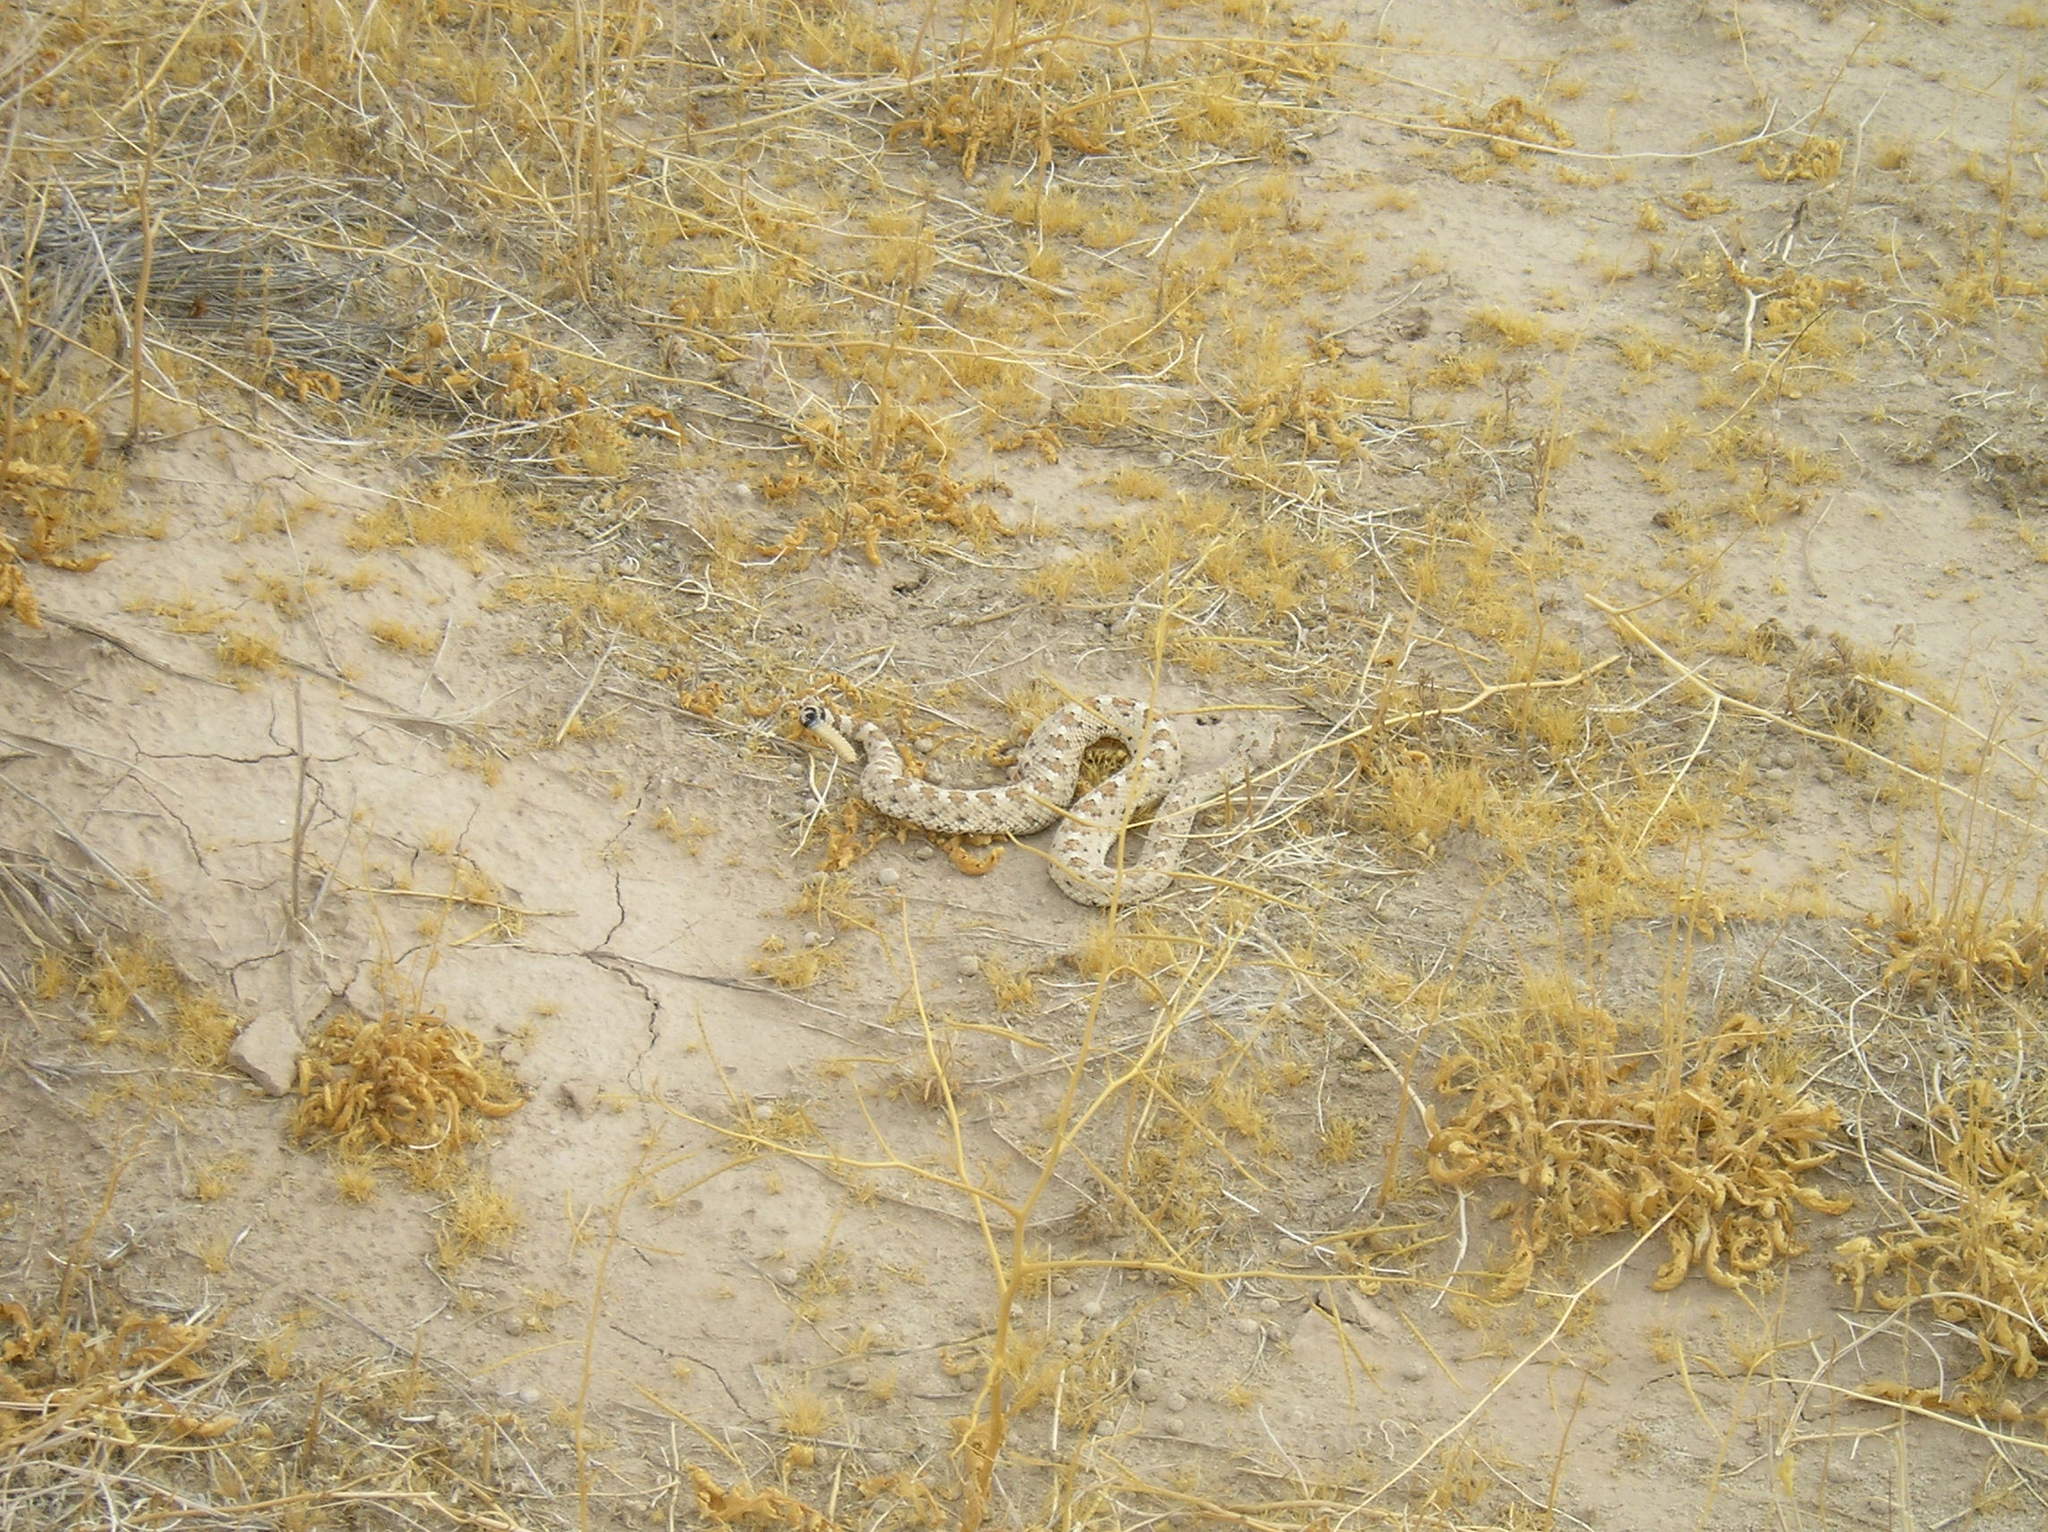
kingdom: Animalia
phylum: Chordata
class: Squamata
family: Viperidae
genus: Crotalus
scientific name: Crotalus cerastes
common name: Sidewinder
